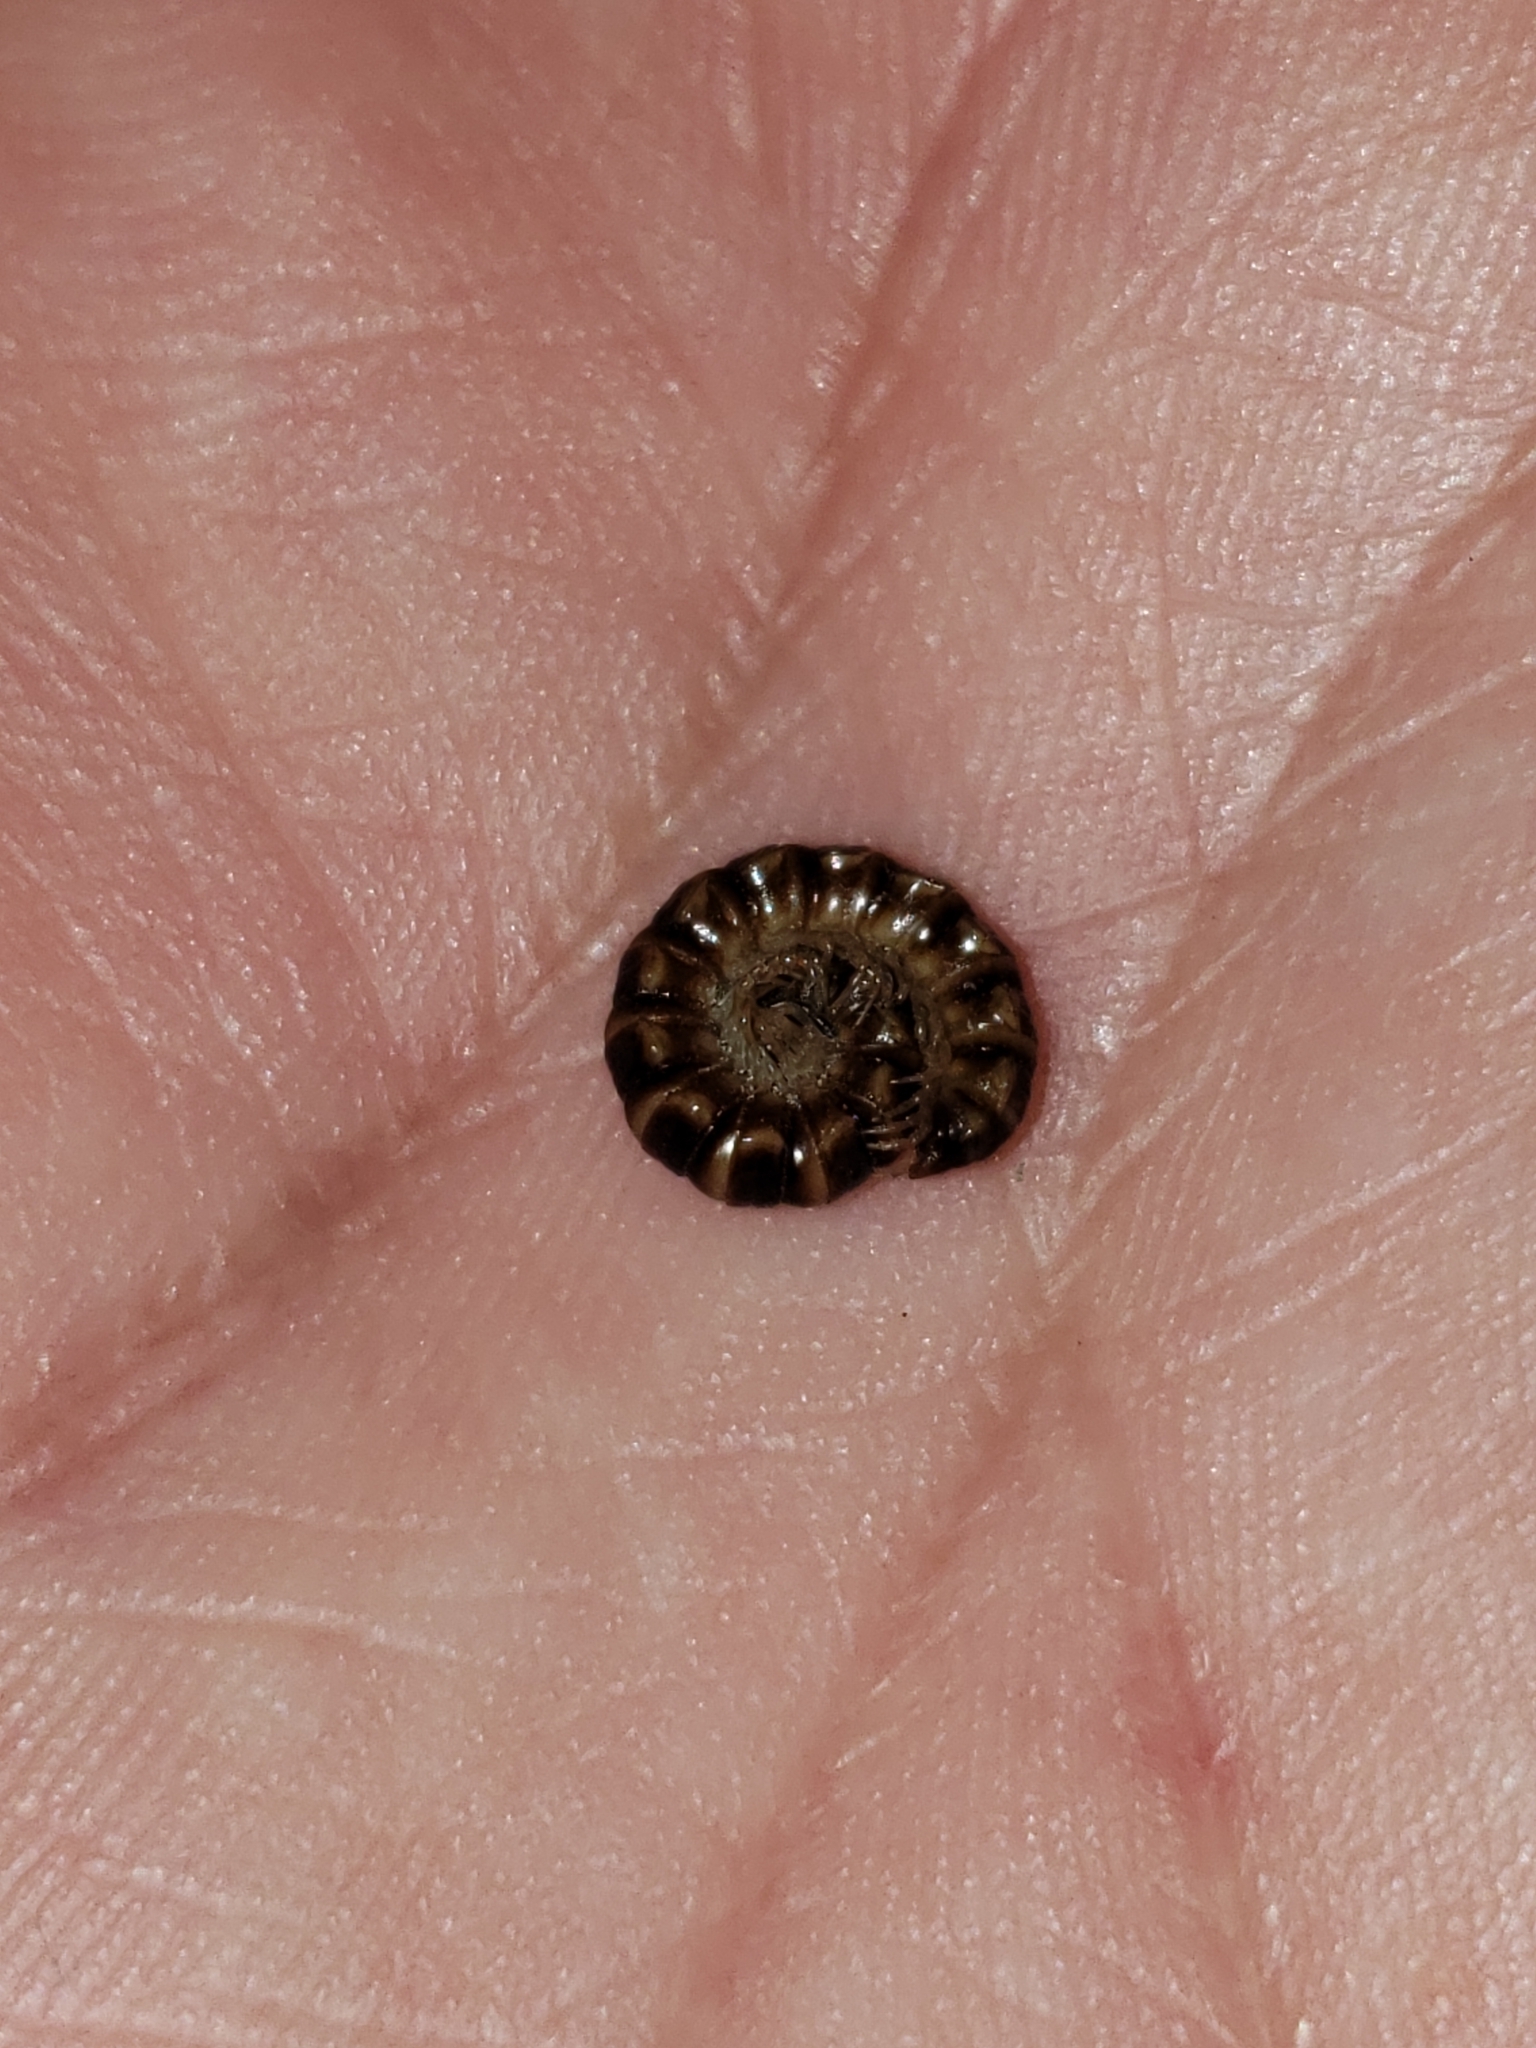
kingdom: Animalia
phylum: Arthropoda
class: Diplopoda
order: Polydesmida
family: Paradoxosomatidae
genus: Oxidus
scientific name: Oxidus gracilis
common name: Greenhouse millipede
